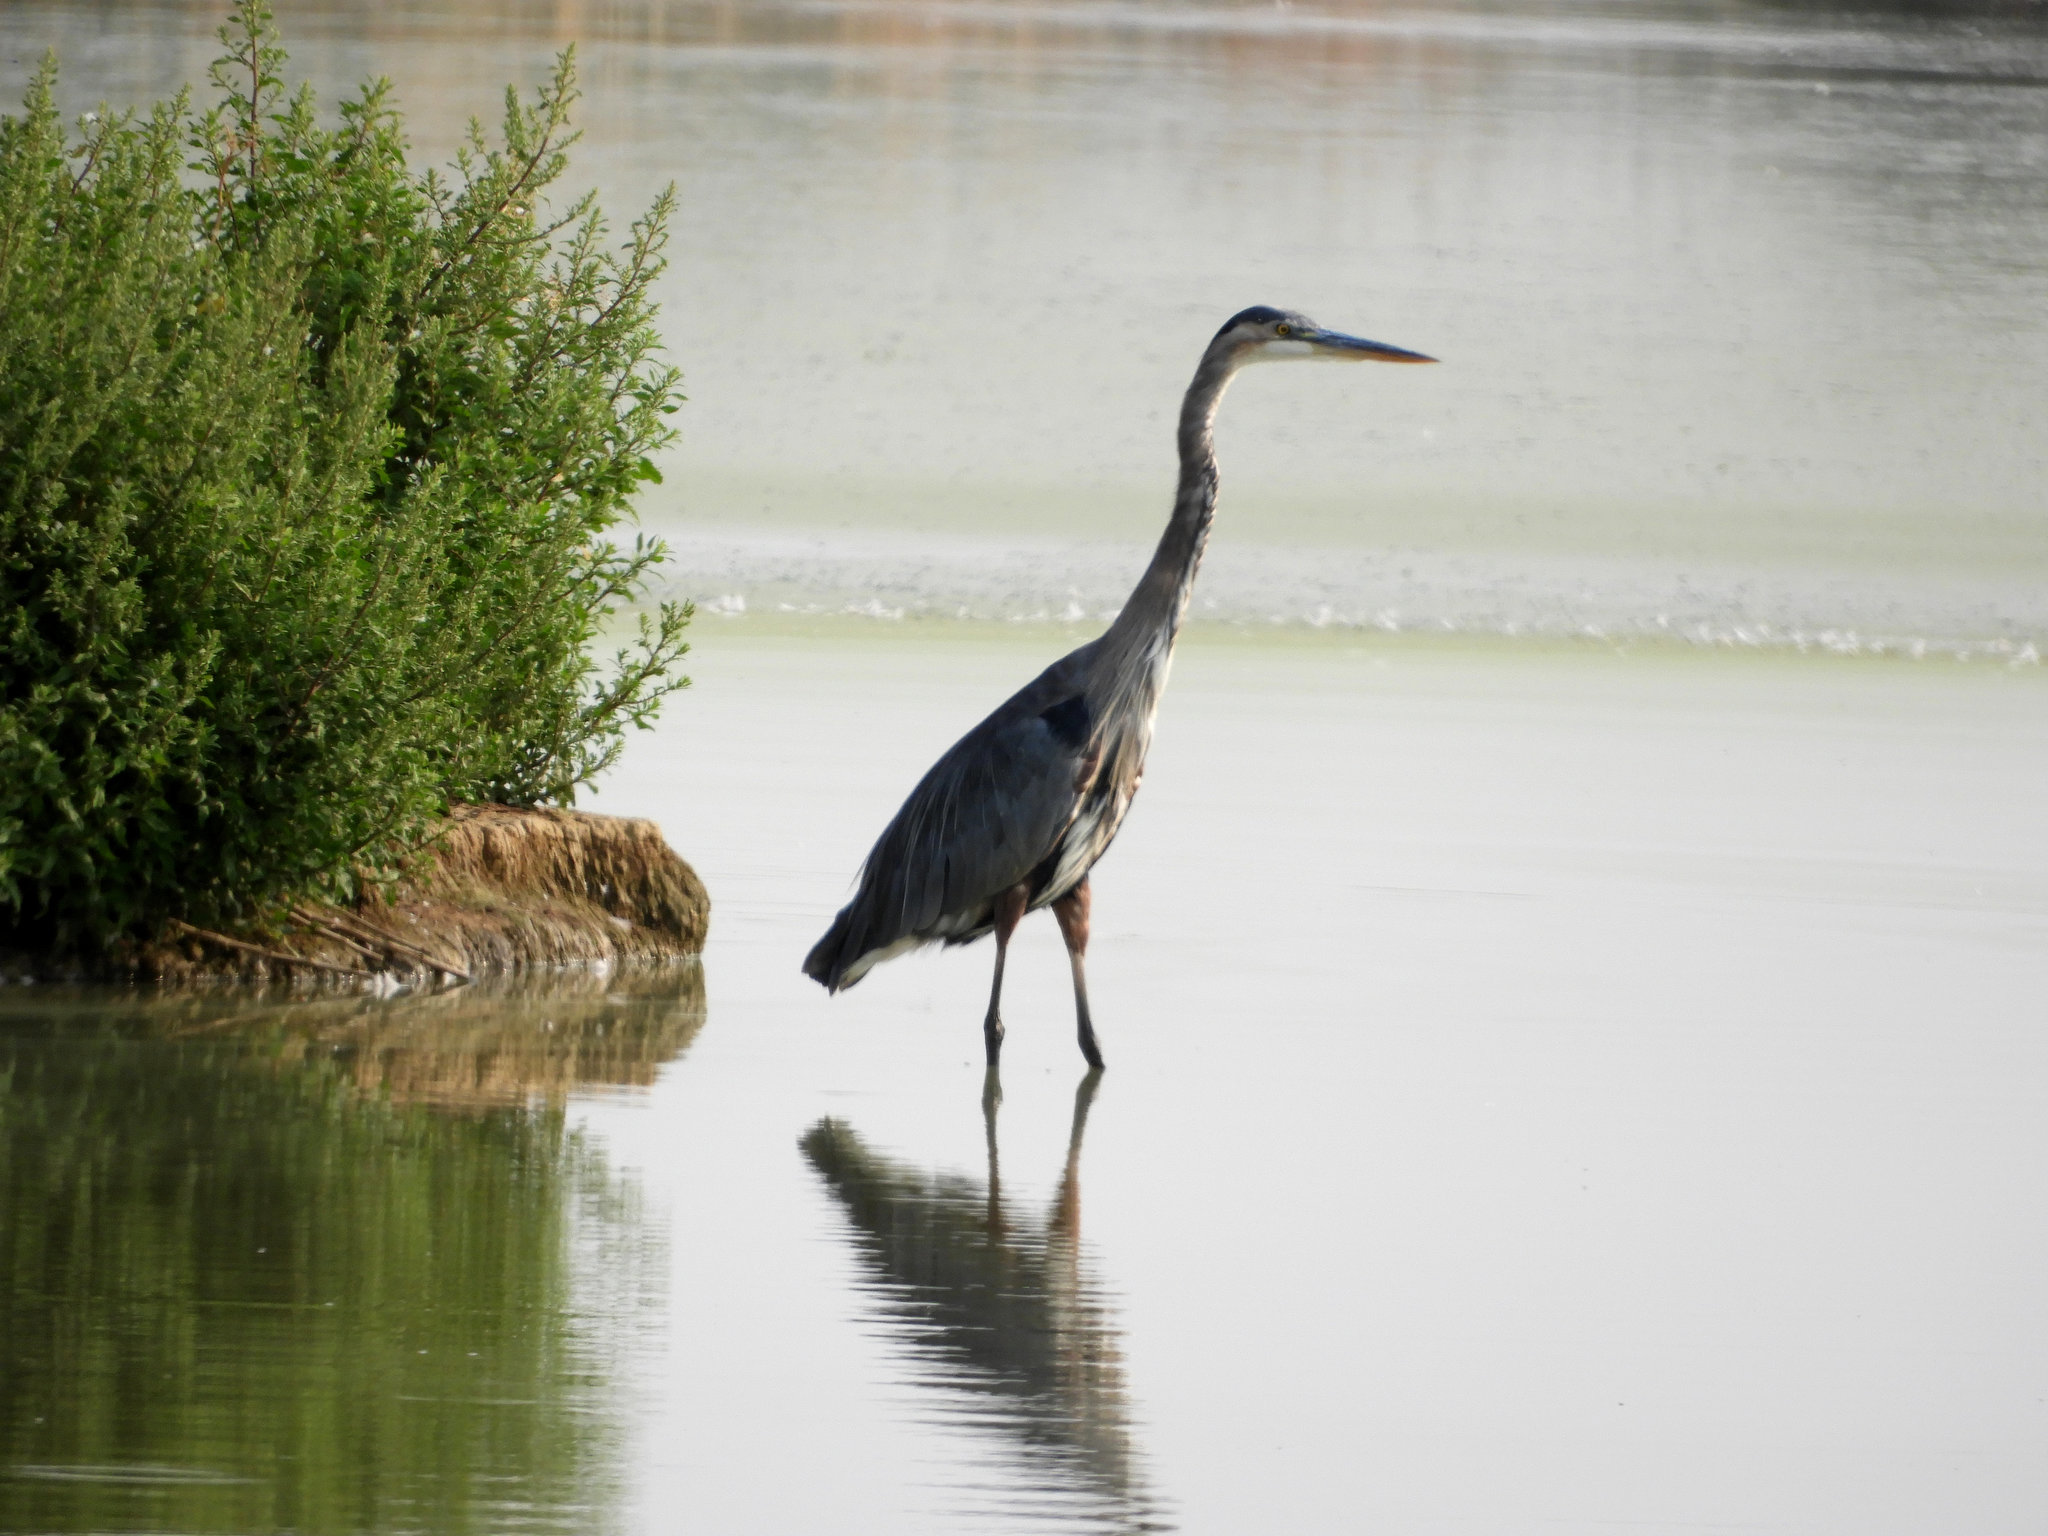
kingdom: Animalia
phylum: Chordata
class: Aves
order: Pelecaniformes
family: Ardeidae
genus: Ardea
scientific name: Ardea herodias
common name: Great blue heron
